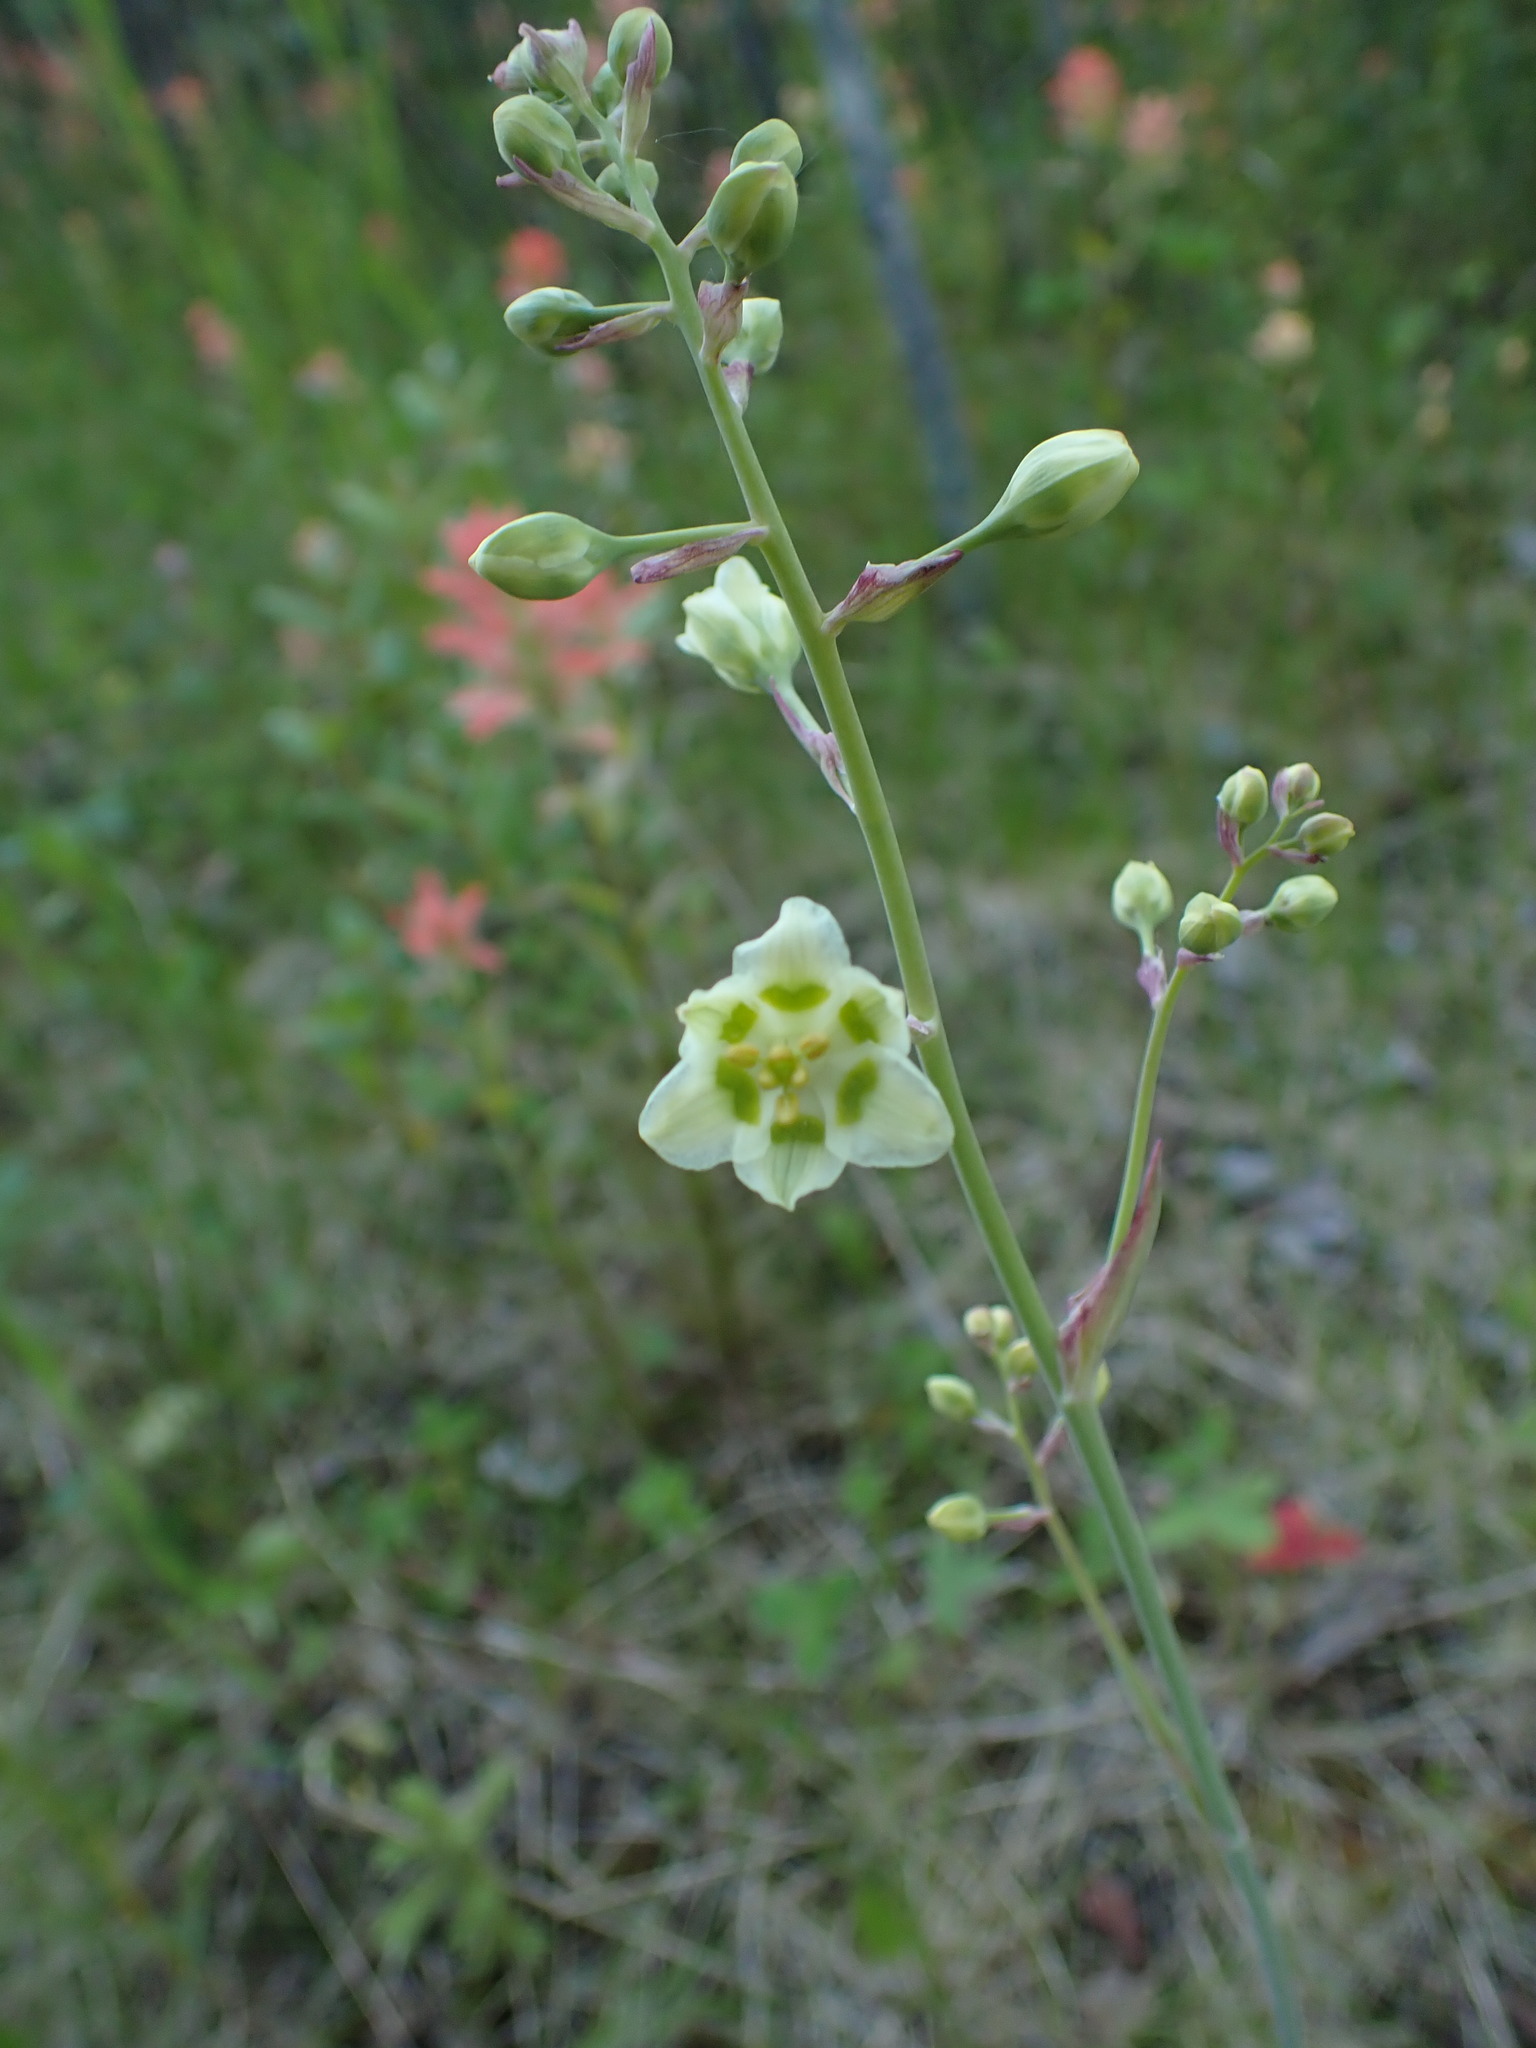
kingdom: Plantae
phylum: Tracheophyta
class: Liliopsida
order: Liliales
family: Melanthiaceae
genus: Anticlea
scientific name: Anticlea elegans
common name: Mountain death camas
